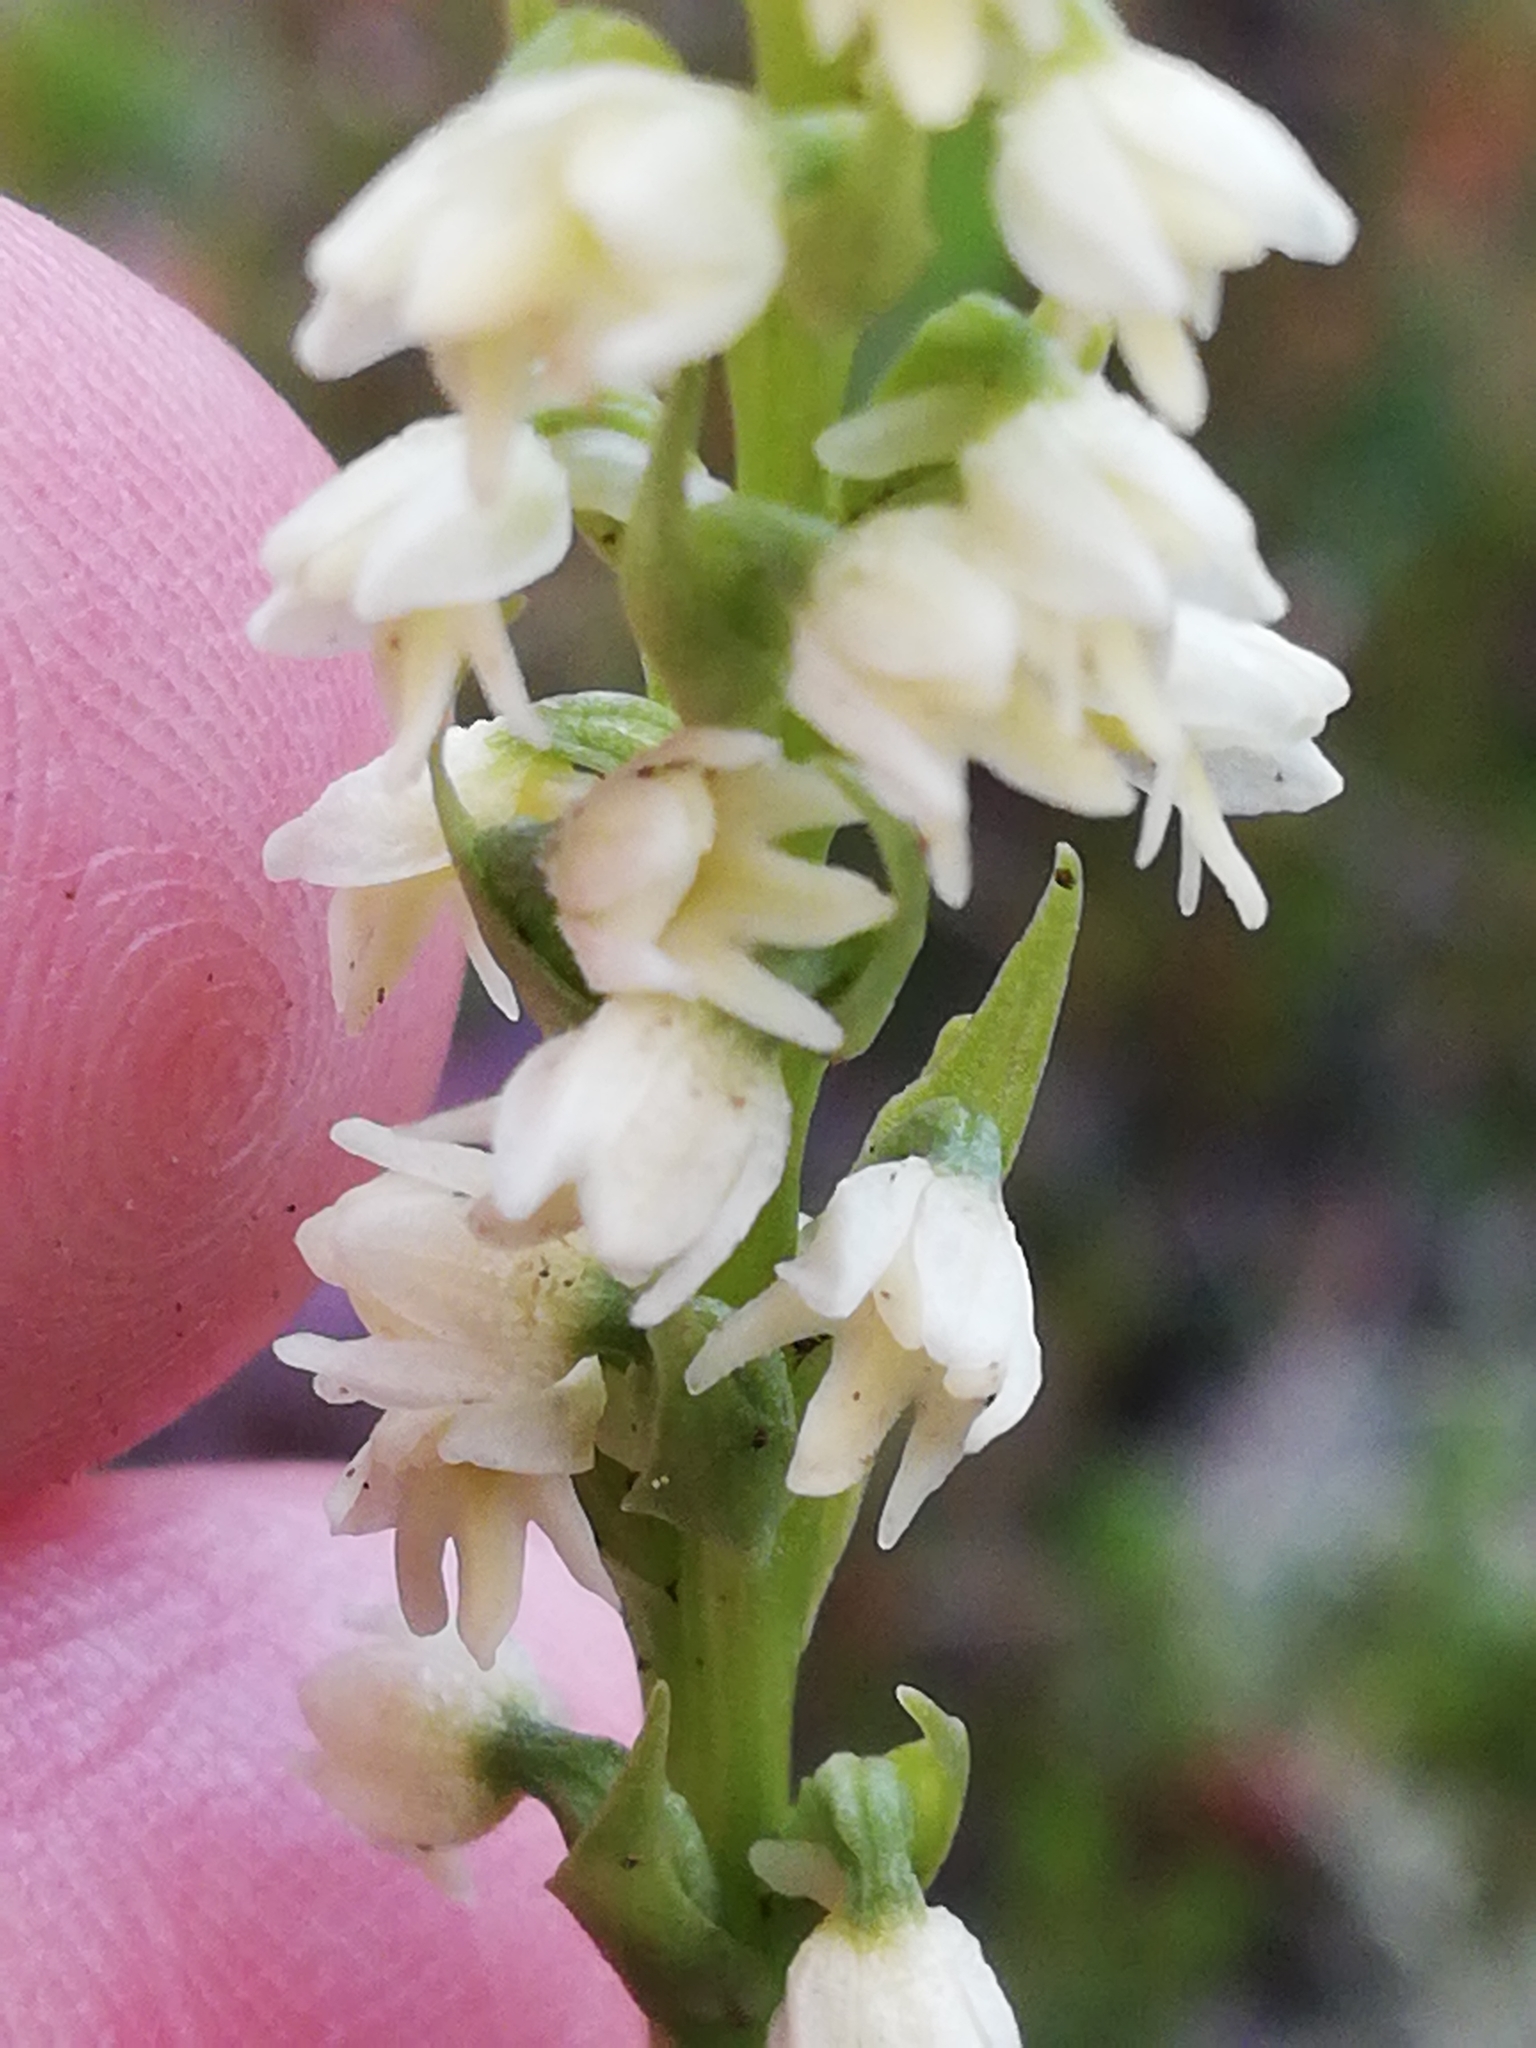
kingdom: Plantae
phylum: Tracheophyta
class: Liliopsida
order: Asparagales
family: Orchidaceae
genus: Pseudorchis
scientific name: Pseudorchis straminea
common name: Vanilla-scented bog orchid
